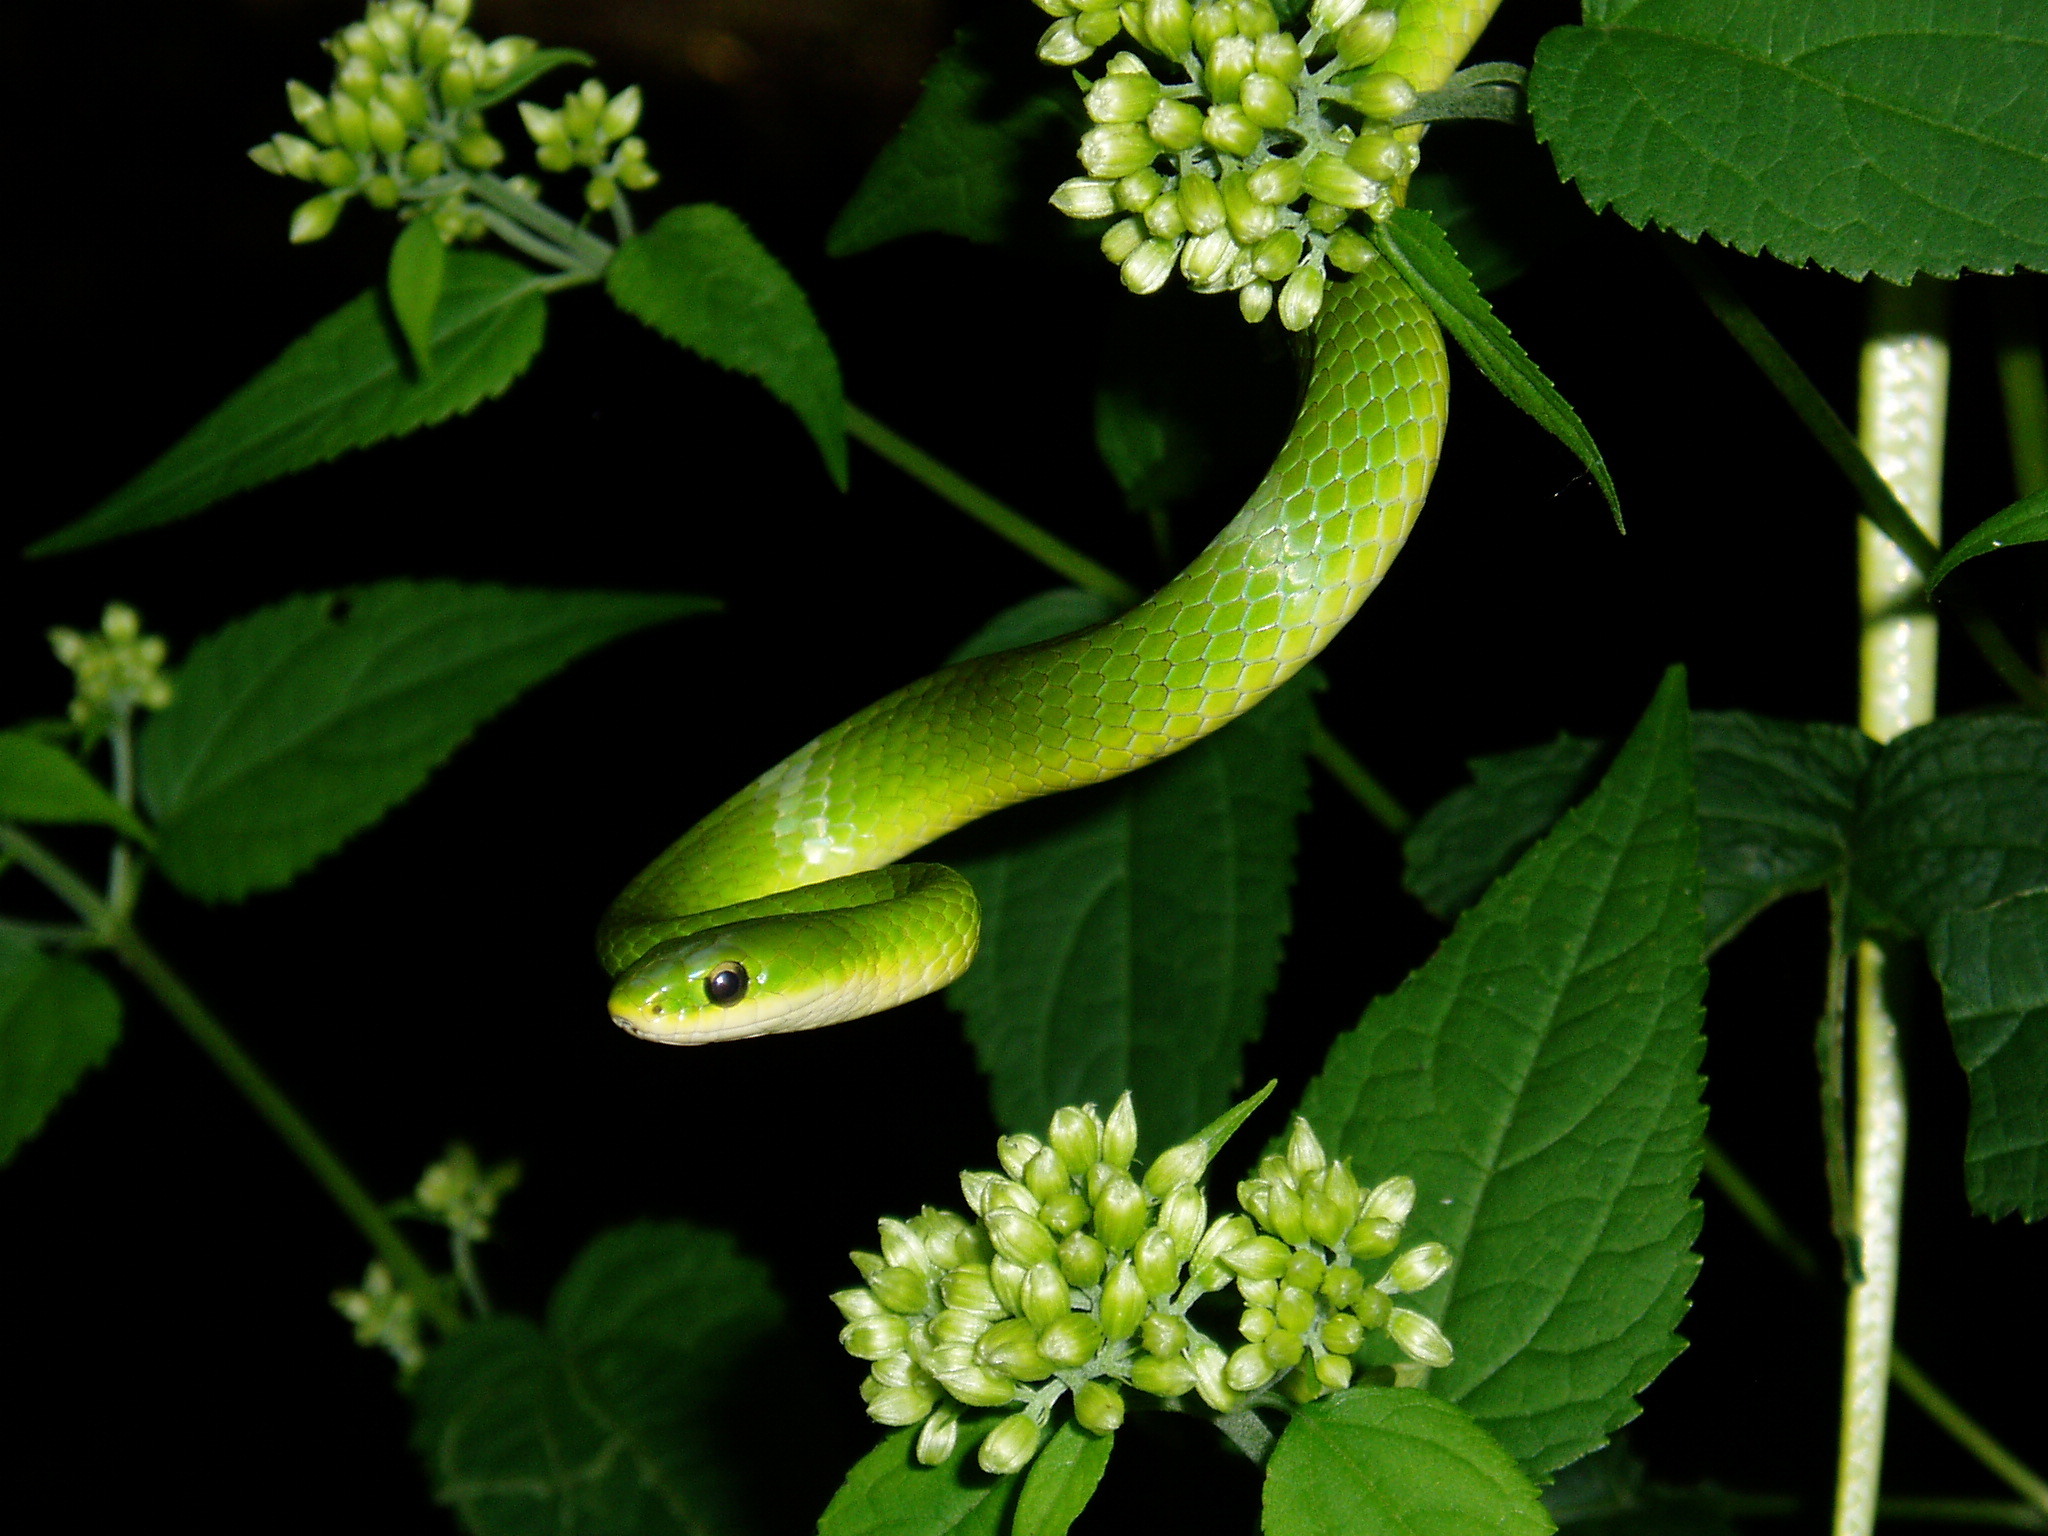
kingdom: Animalia
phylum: Chordata
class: Squamata
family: Colubridae
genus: Opheodrys
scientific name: Opheodrys vernalis
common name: Smooth green snake
